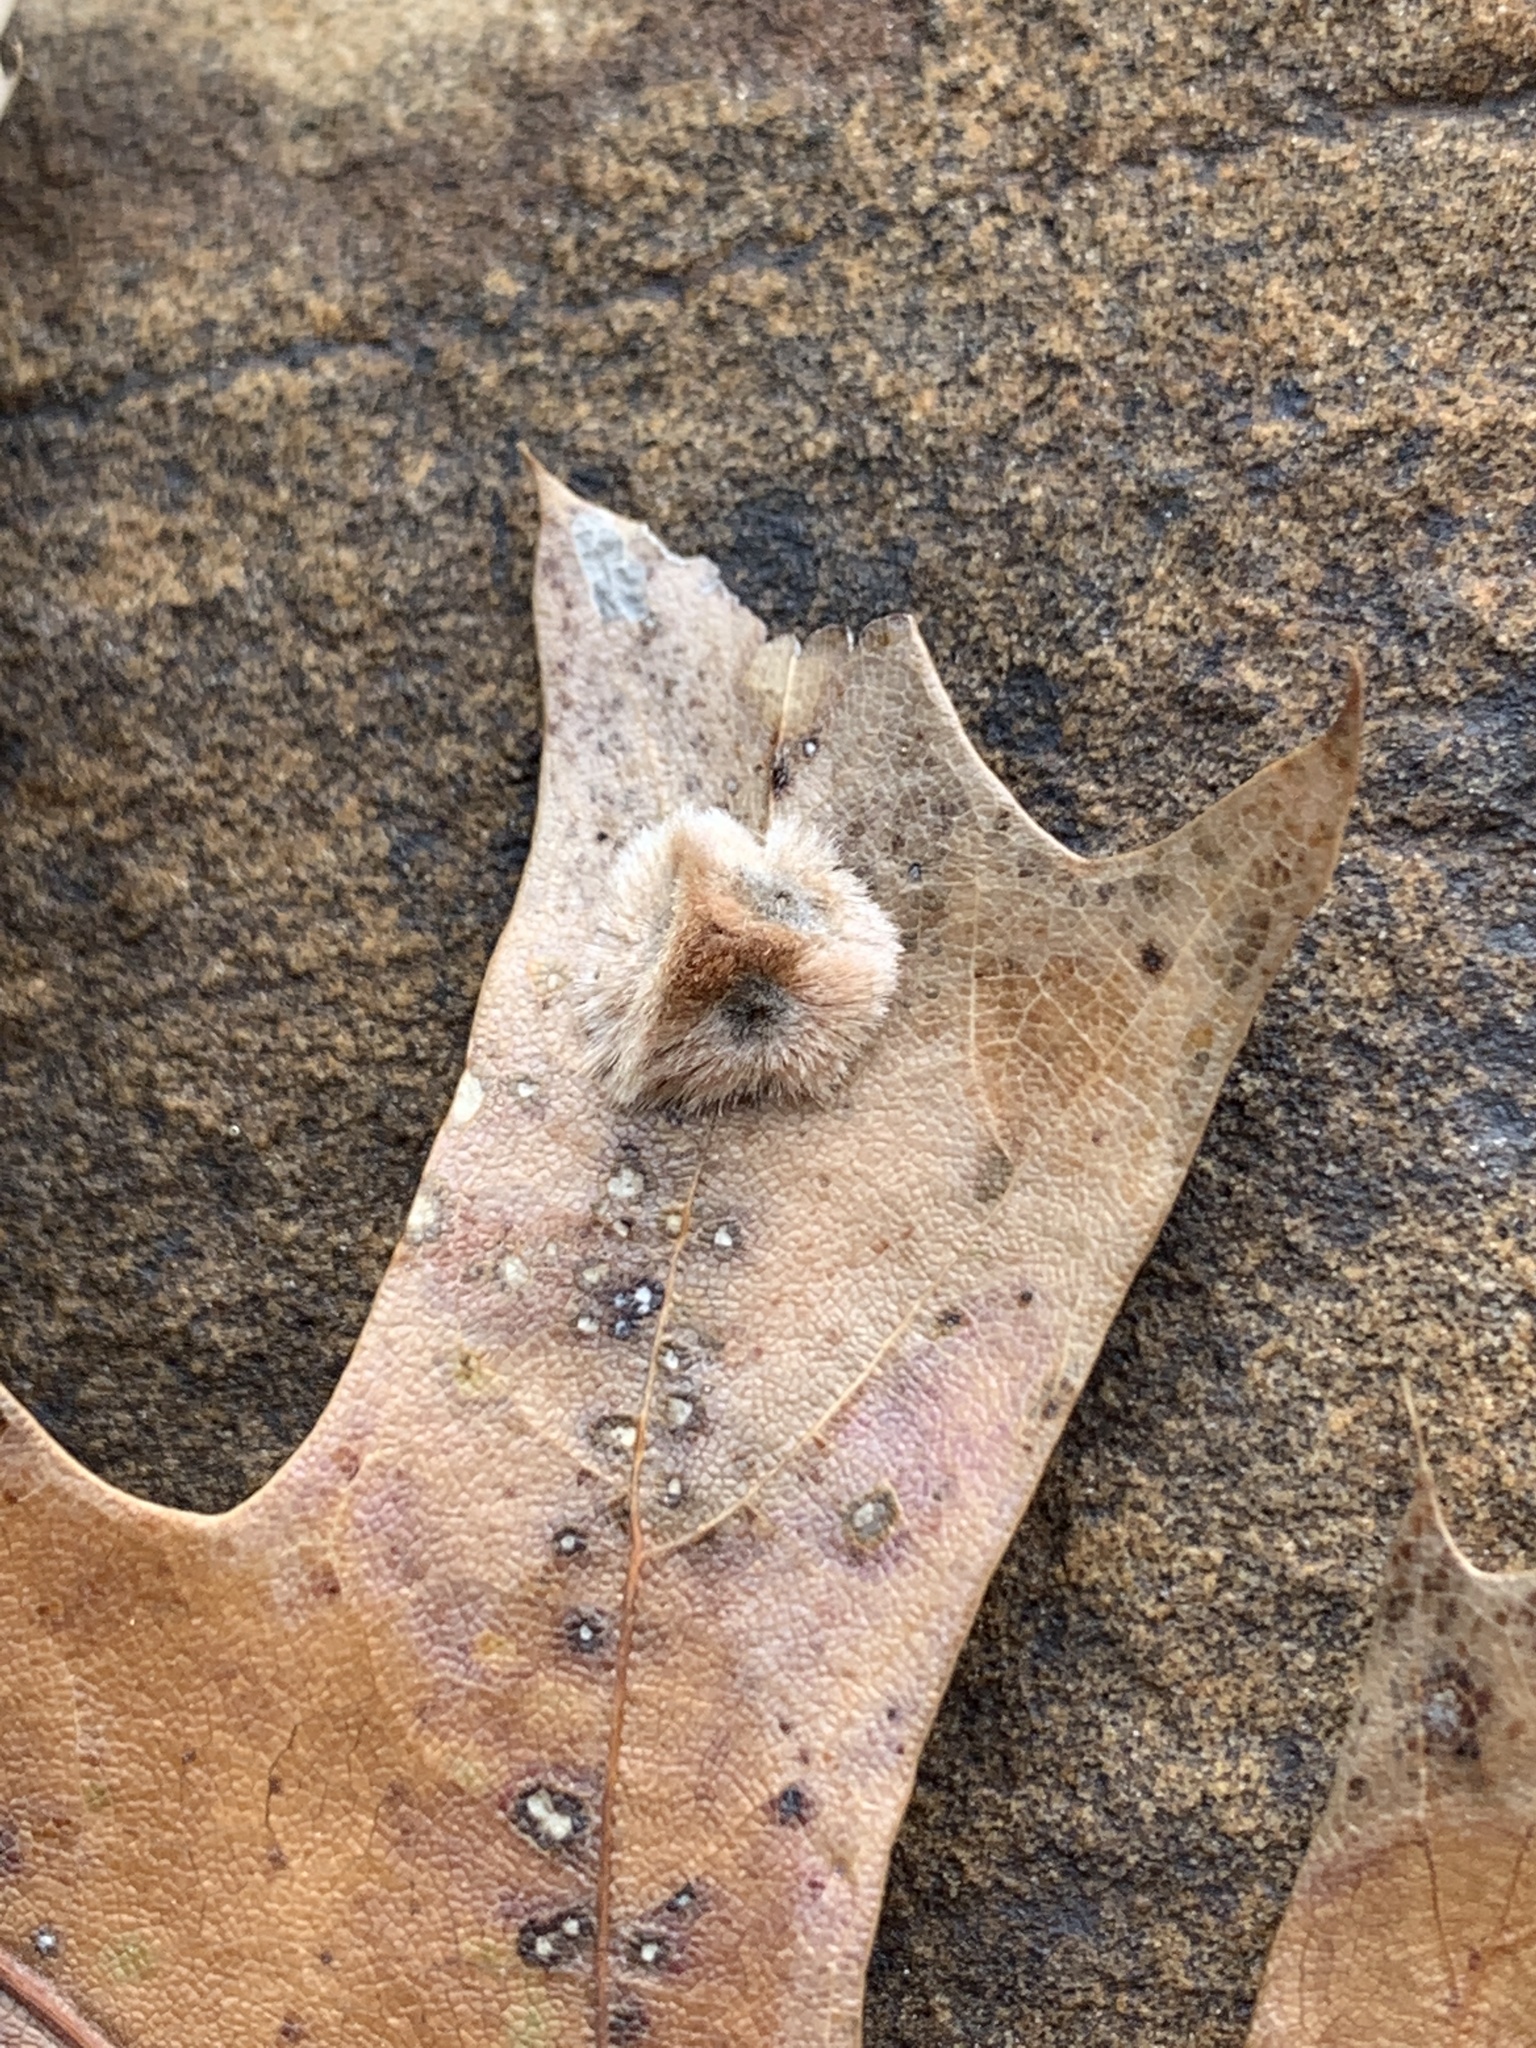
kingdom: Animalia
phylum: Arthropoda
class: Insecta
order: Hymenoptera
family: Cynipidae
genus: Callirhytis
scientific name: Callirhytis
